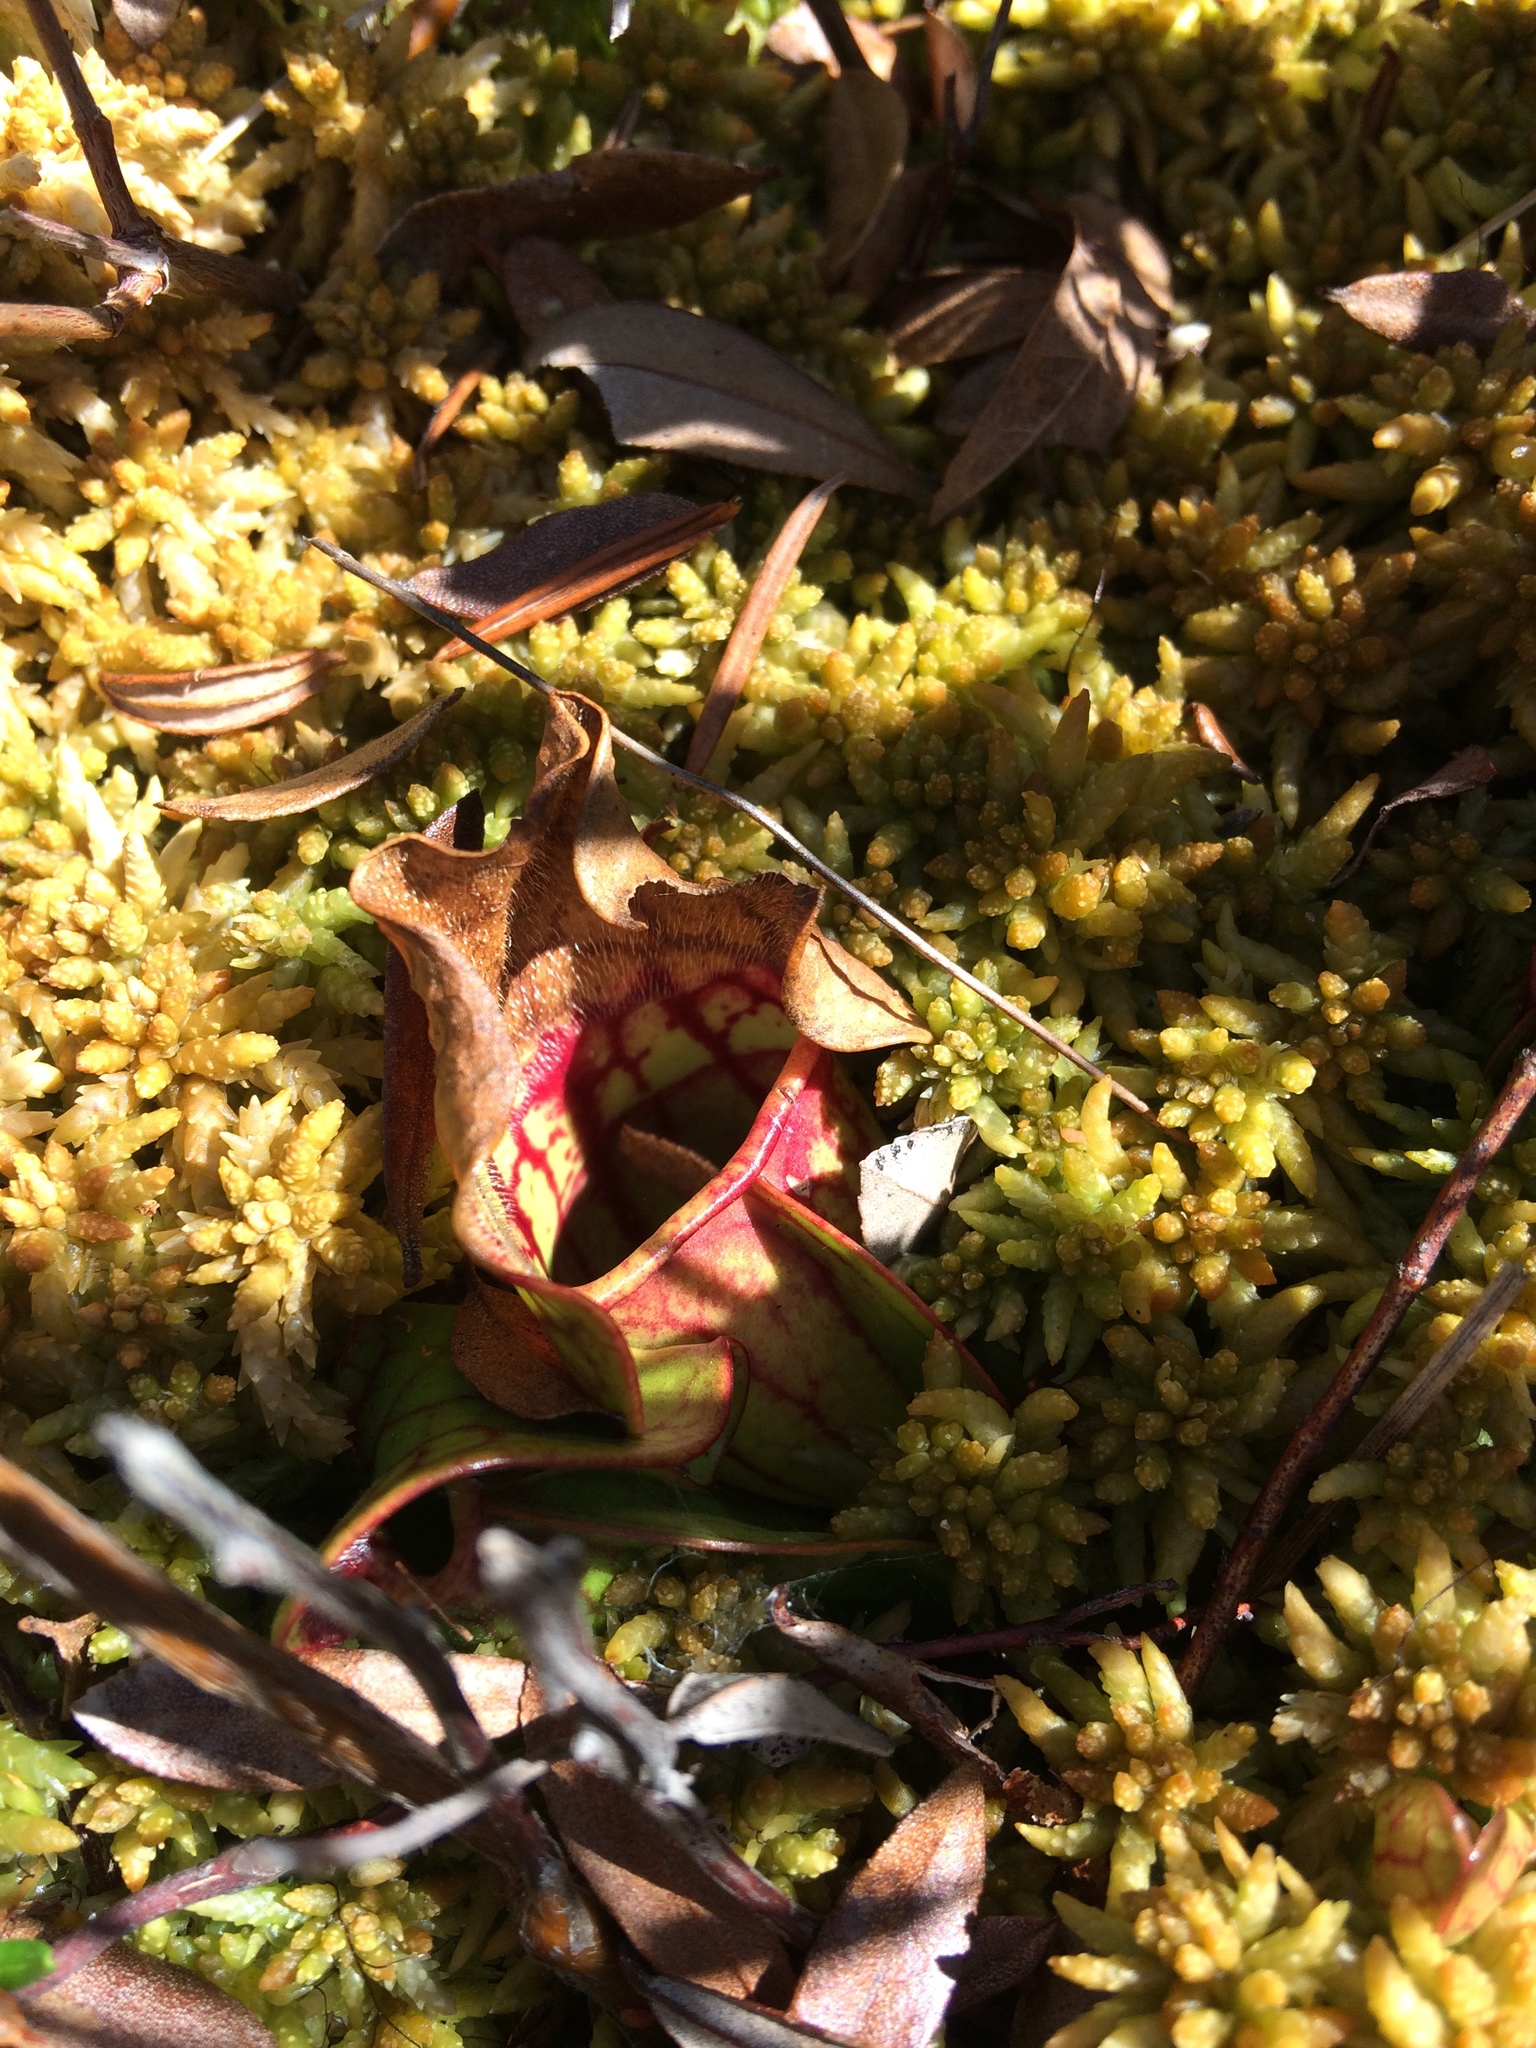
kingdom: Plantae
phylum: Tracheophyta
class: Magnoliopsida
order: Ericales
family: Sarraceniaceae
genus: Sarracenia
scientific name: Sarracenia purpurea
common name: Pitcherplant
